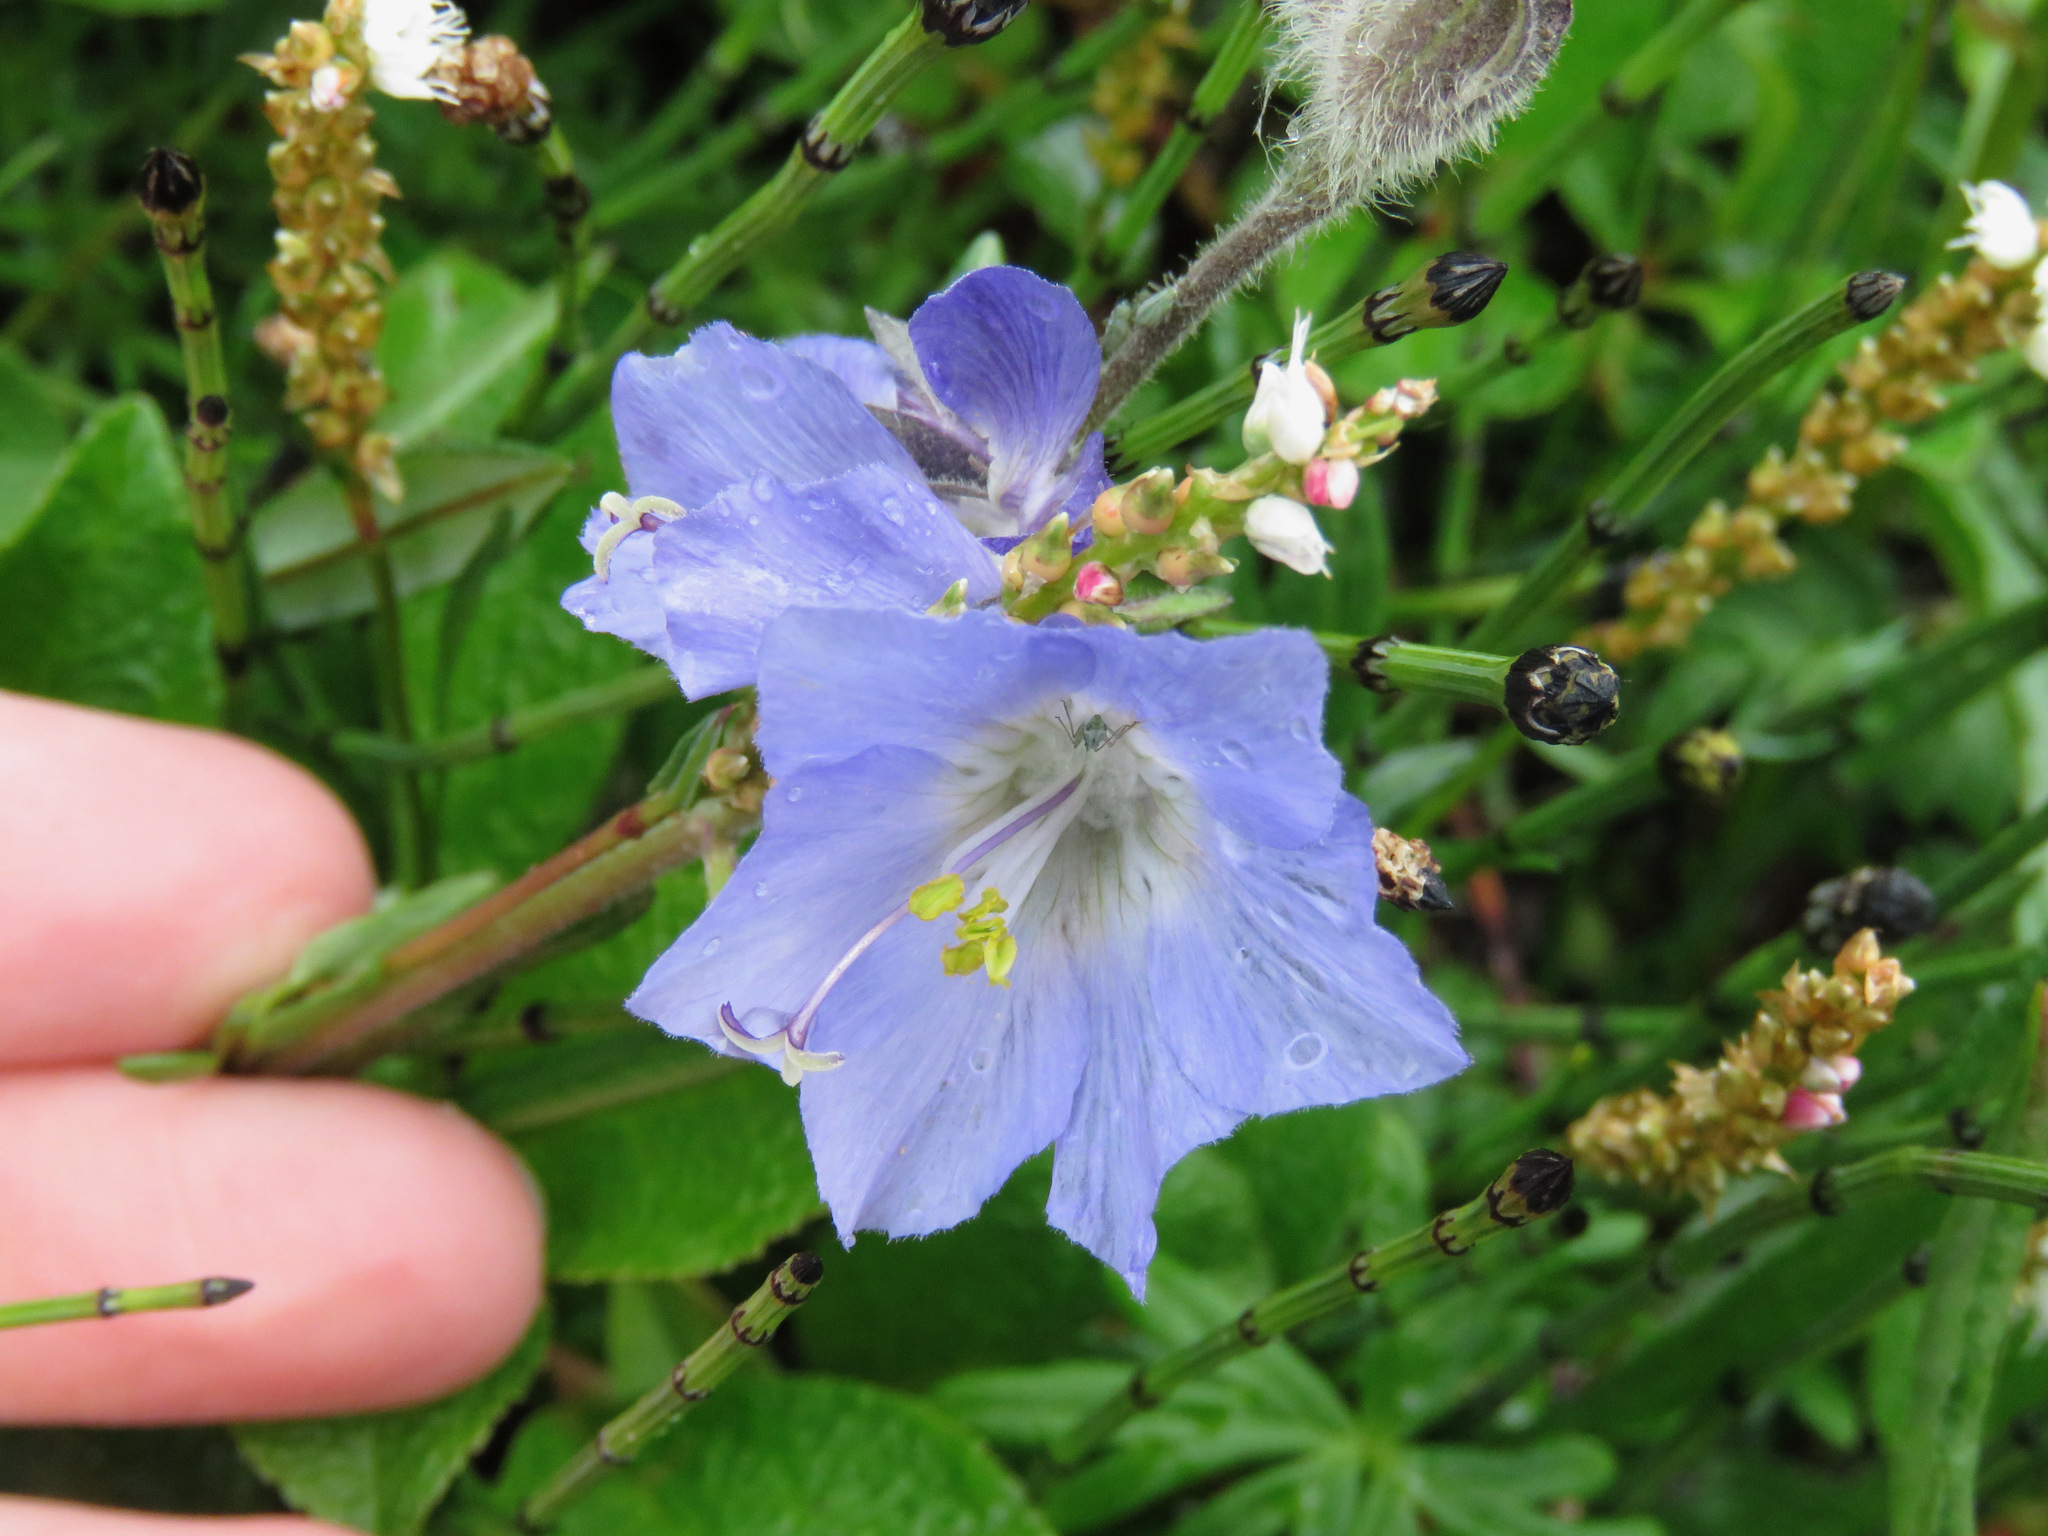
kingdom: Plantae
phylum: Tracheophyta
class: Magnoliopsida
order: Ericales
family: Polemoniaceae
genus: Polemonium
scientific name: Polemonium acutiflorum
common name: Tall jacob's-ladder
